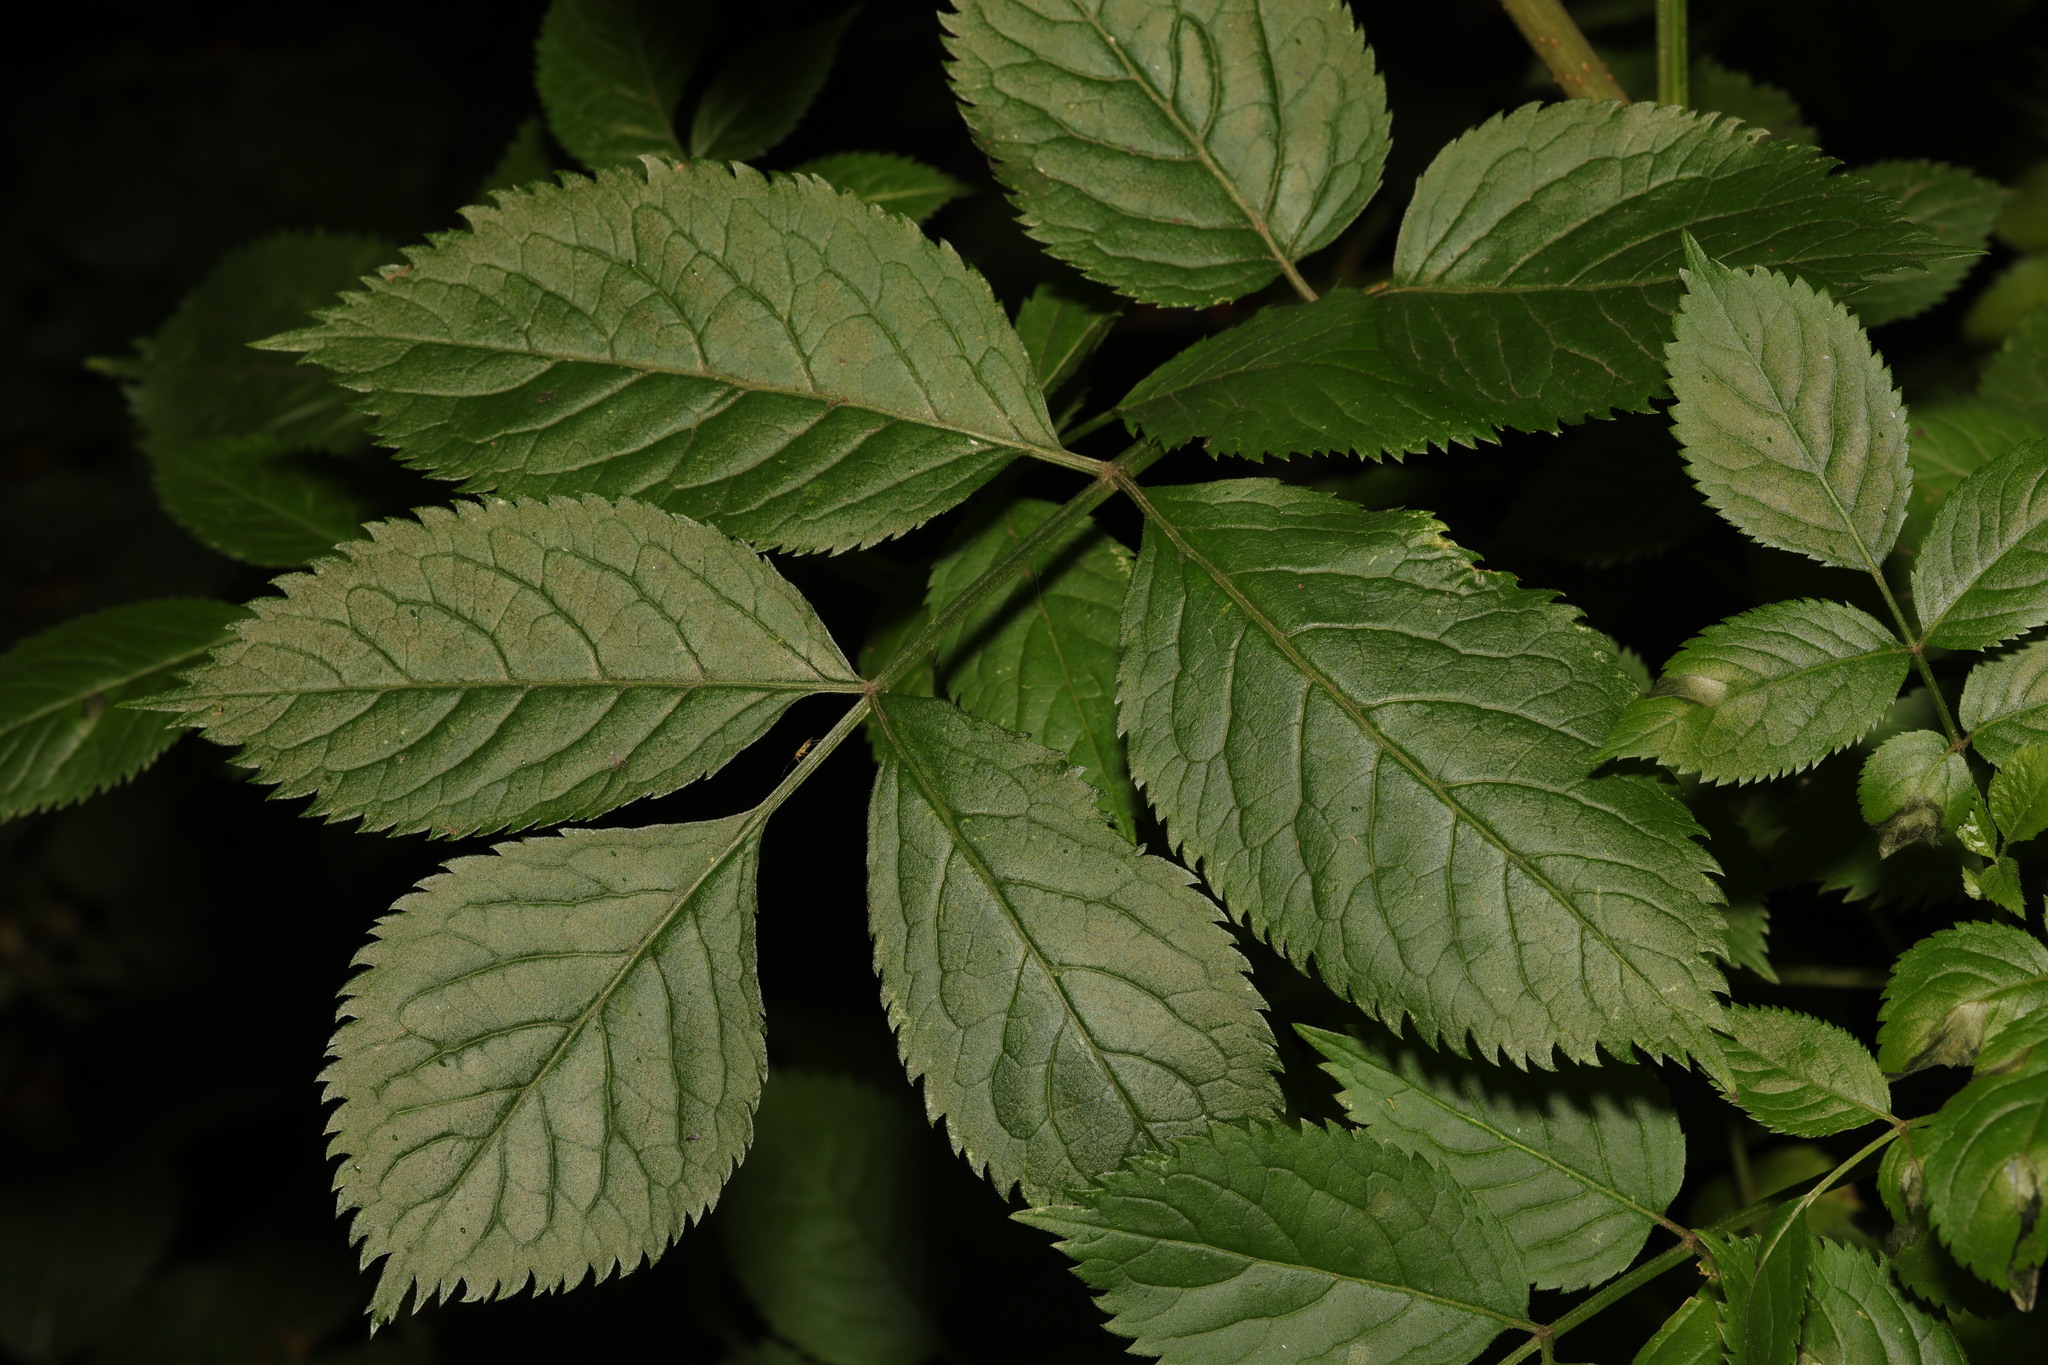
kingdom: Plantae
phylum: Tracheophyta
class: Magnoliopsida
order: Dipsacales
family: Viburnaceae
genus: Sambucus
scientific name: Sambucus nigra
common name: Elder
